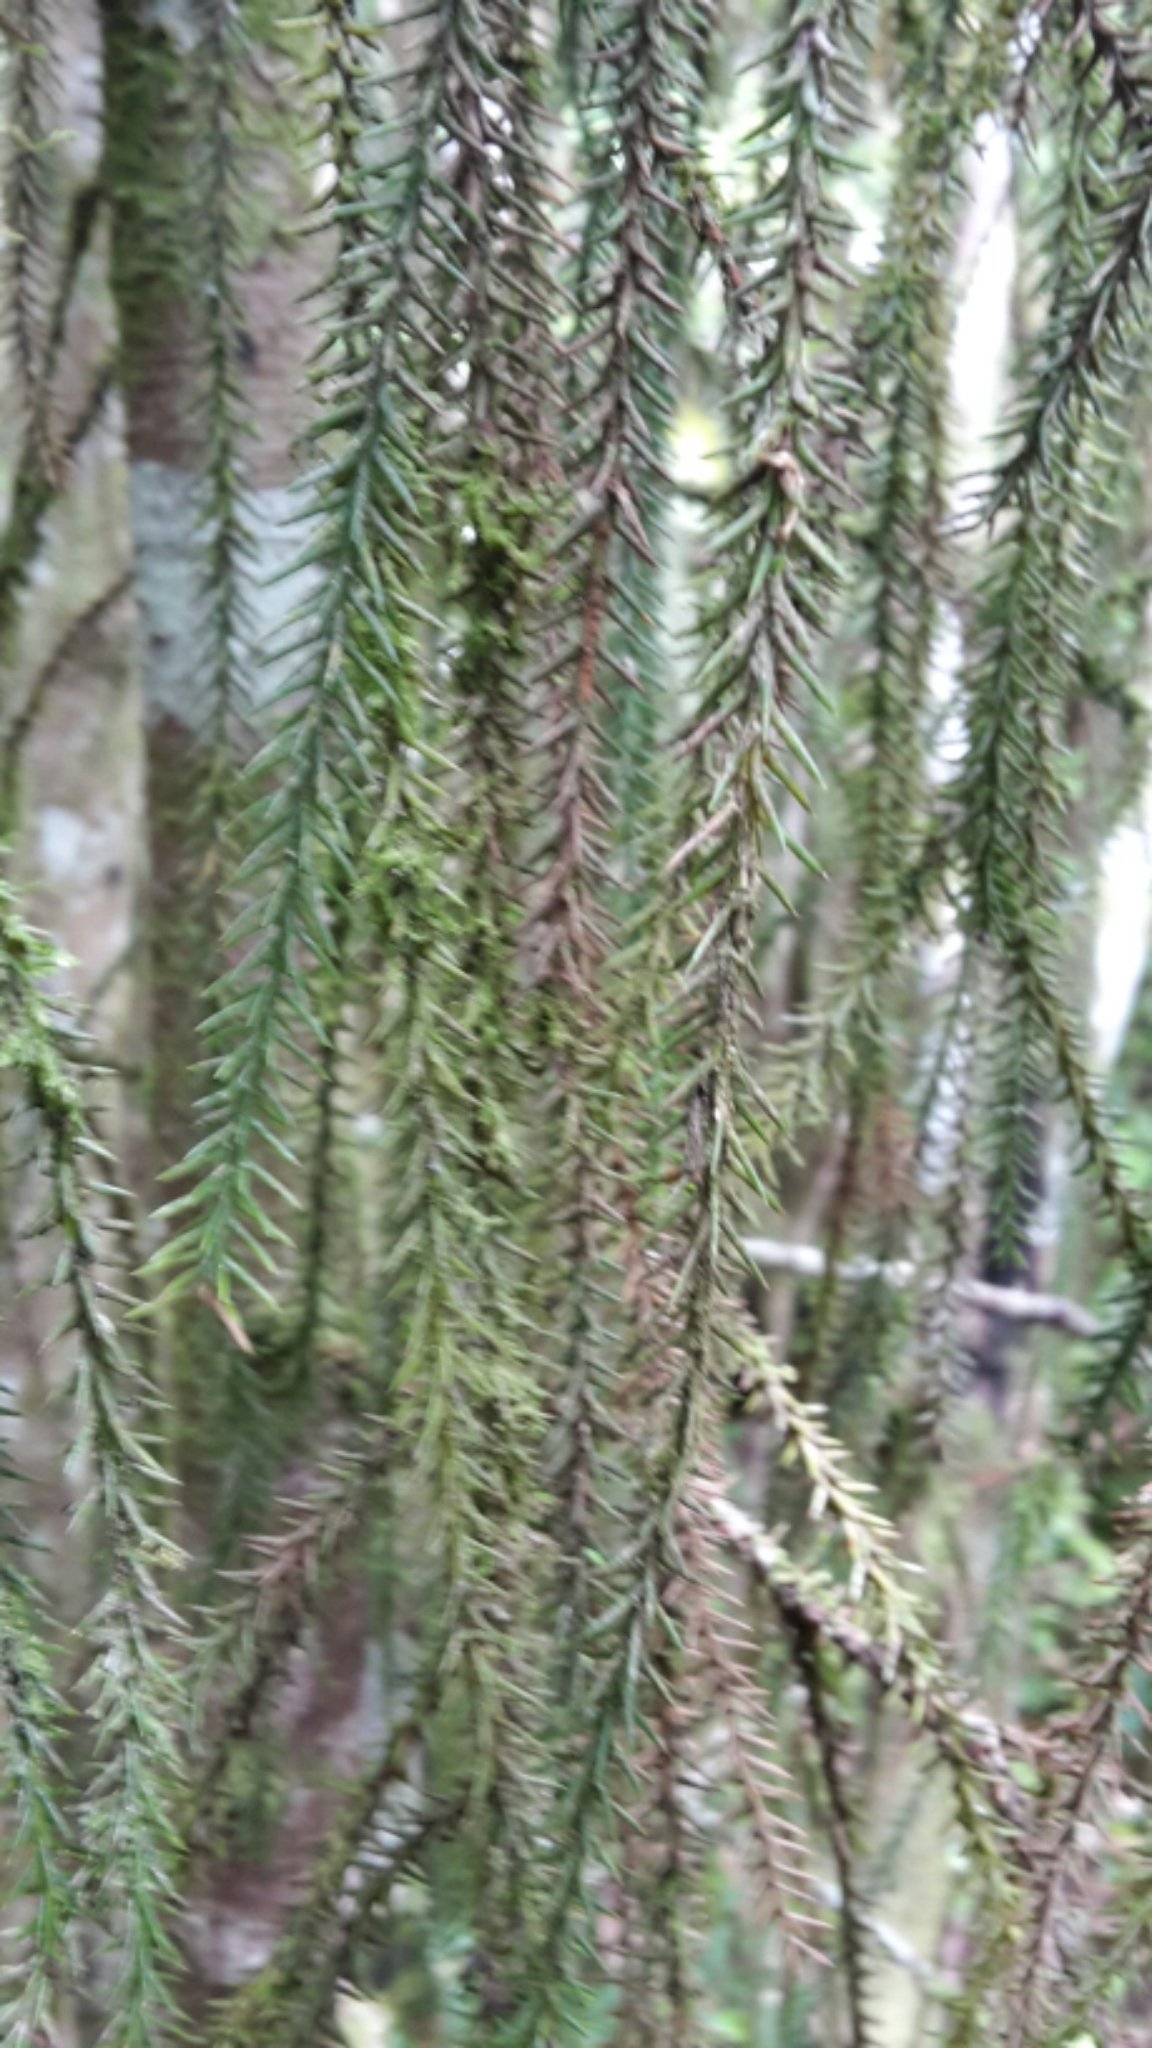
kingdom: Plantae
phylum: Tracheophyta
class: Pinopsida
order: Pinales
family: Podocarpaceae
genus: Dacrydium
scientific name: Dacrydium cupressinum
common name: Red pine
